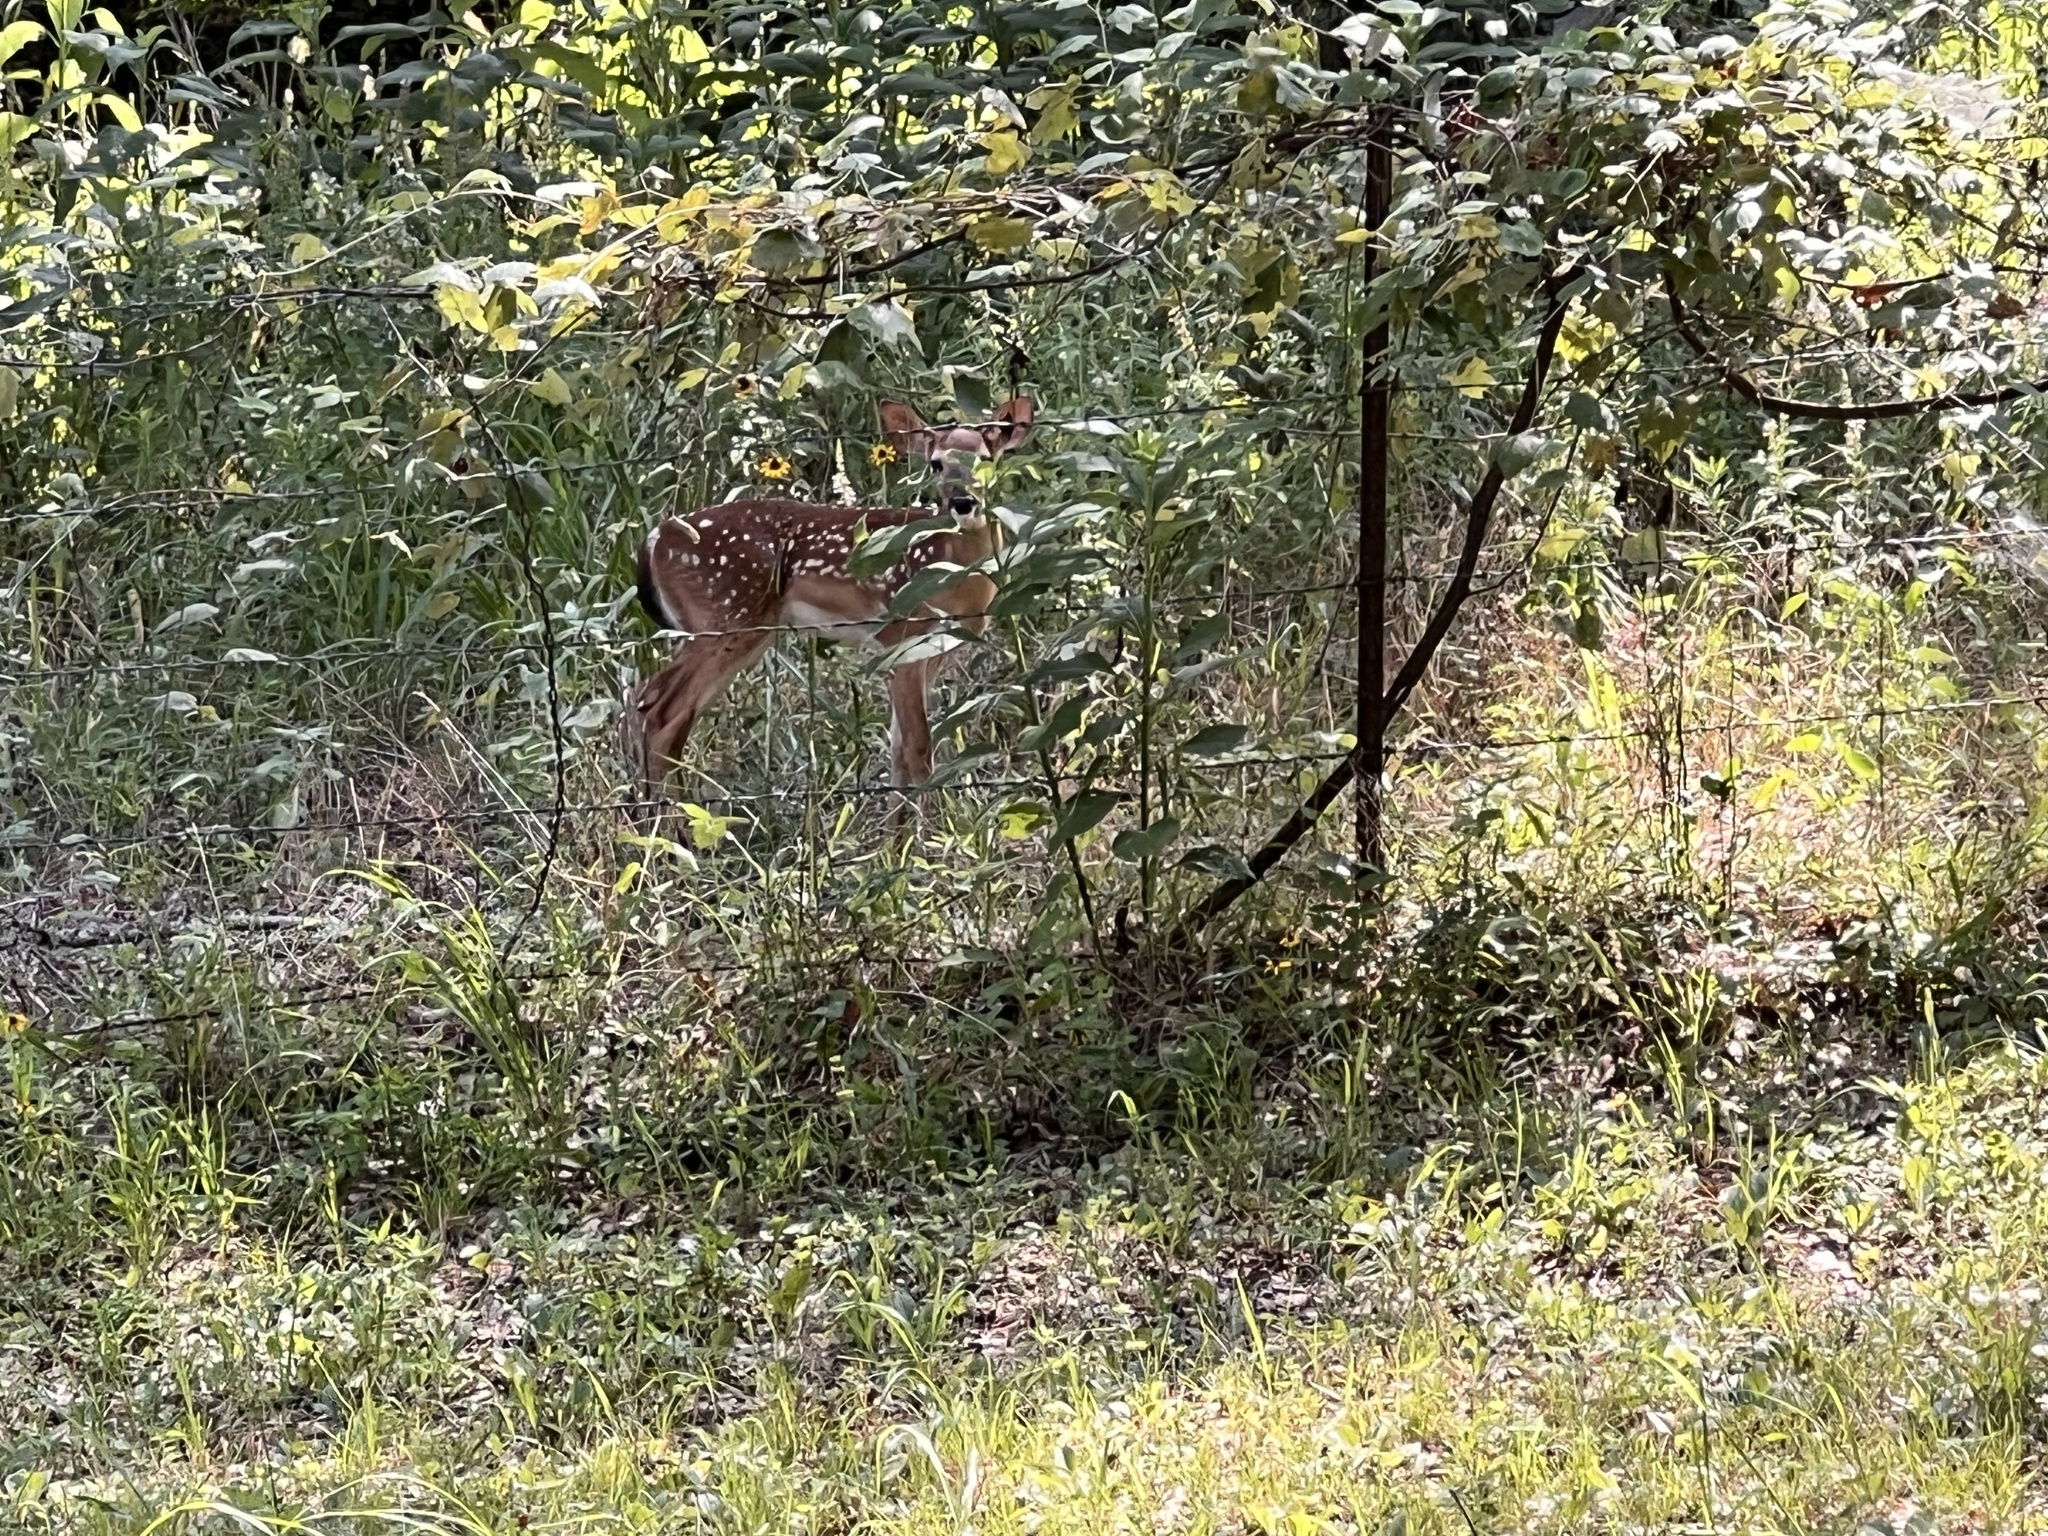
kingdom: Animalia
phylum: Chordata
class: Mammalia
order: Artiodactyla
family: Cervidae
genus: Odocoileus
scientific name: Odocoileus virginianus
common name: White-tailed deer
